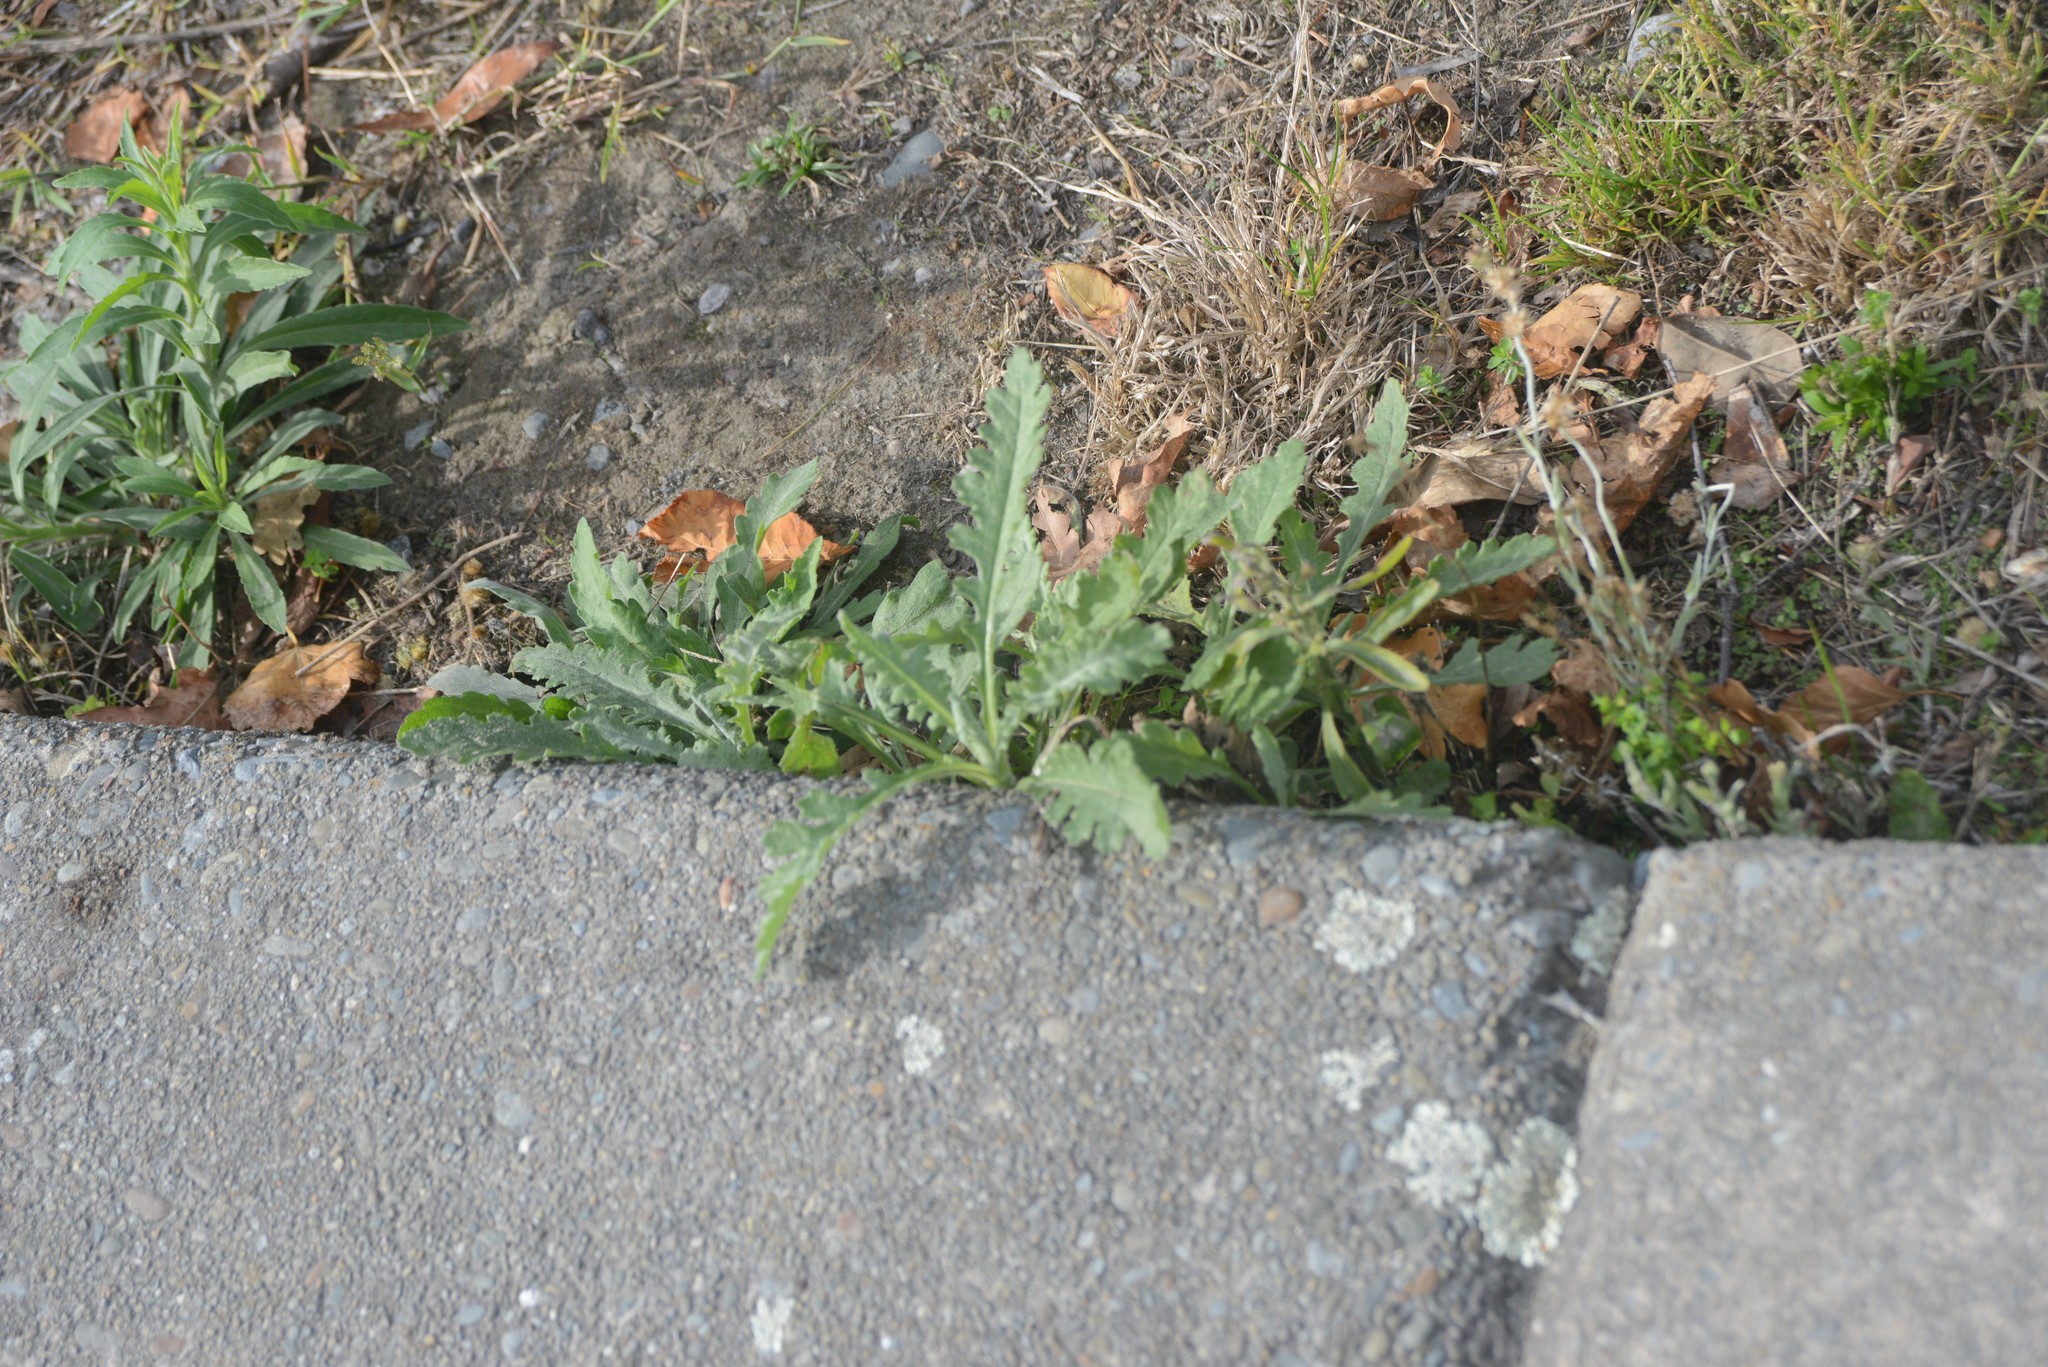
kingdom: Plantae
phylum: Tracheophyta
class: Magnoliopsida
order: Asterales
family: Asteraceae
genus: Senecio
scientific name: Senecio glomeratus
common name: Cutleaf burnweed
